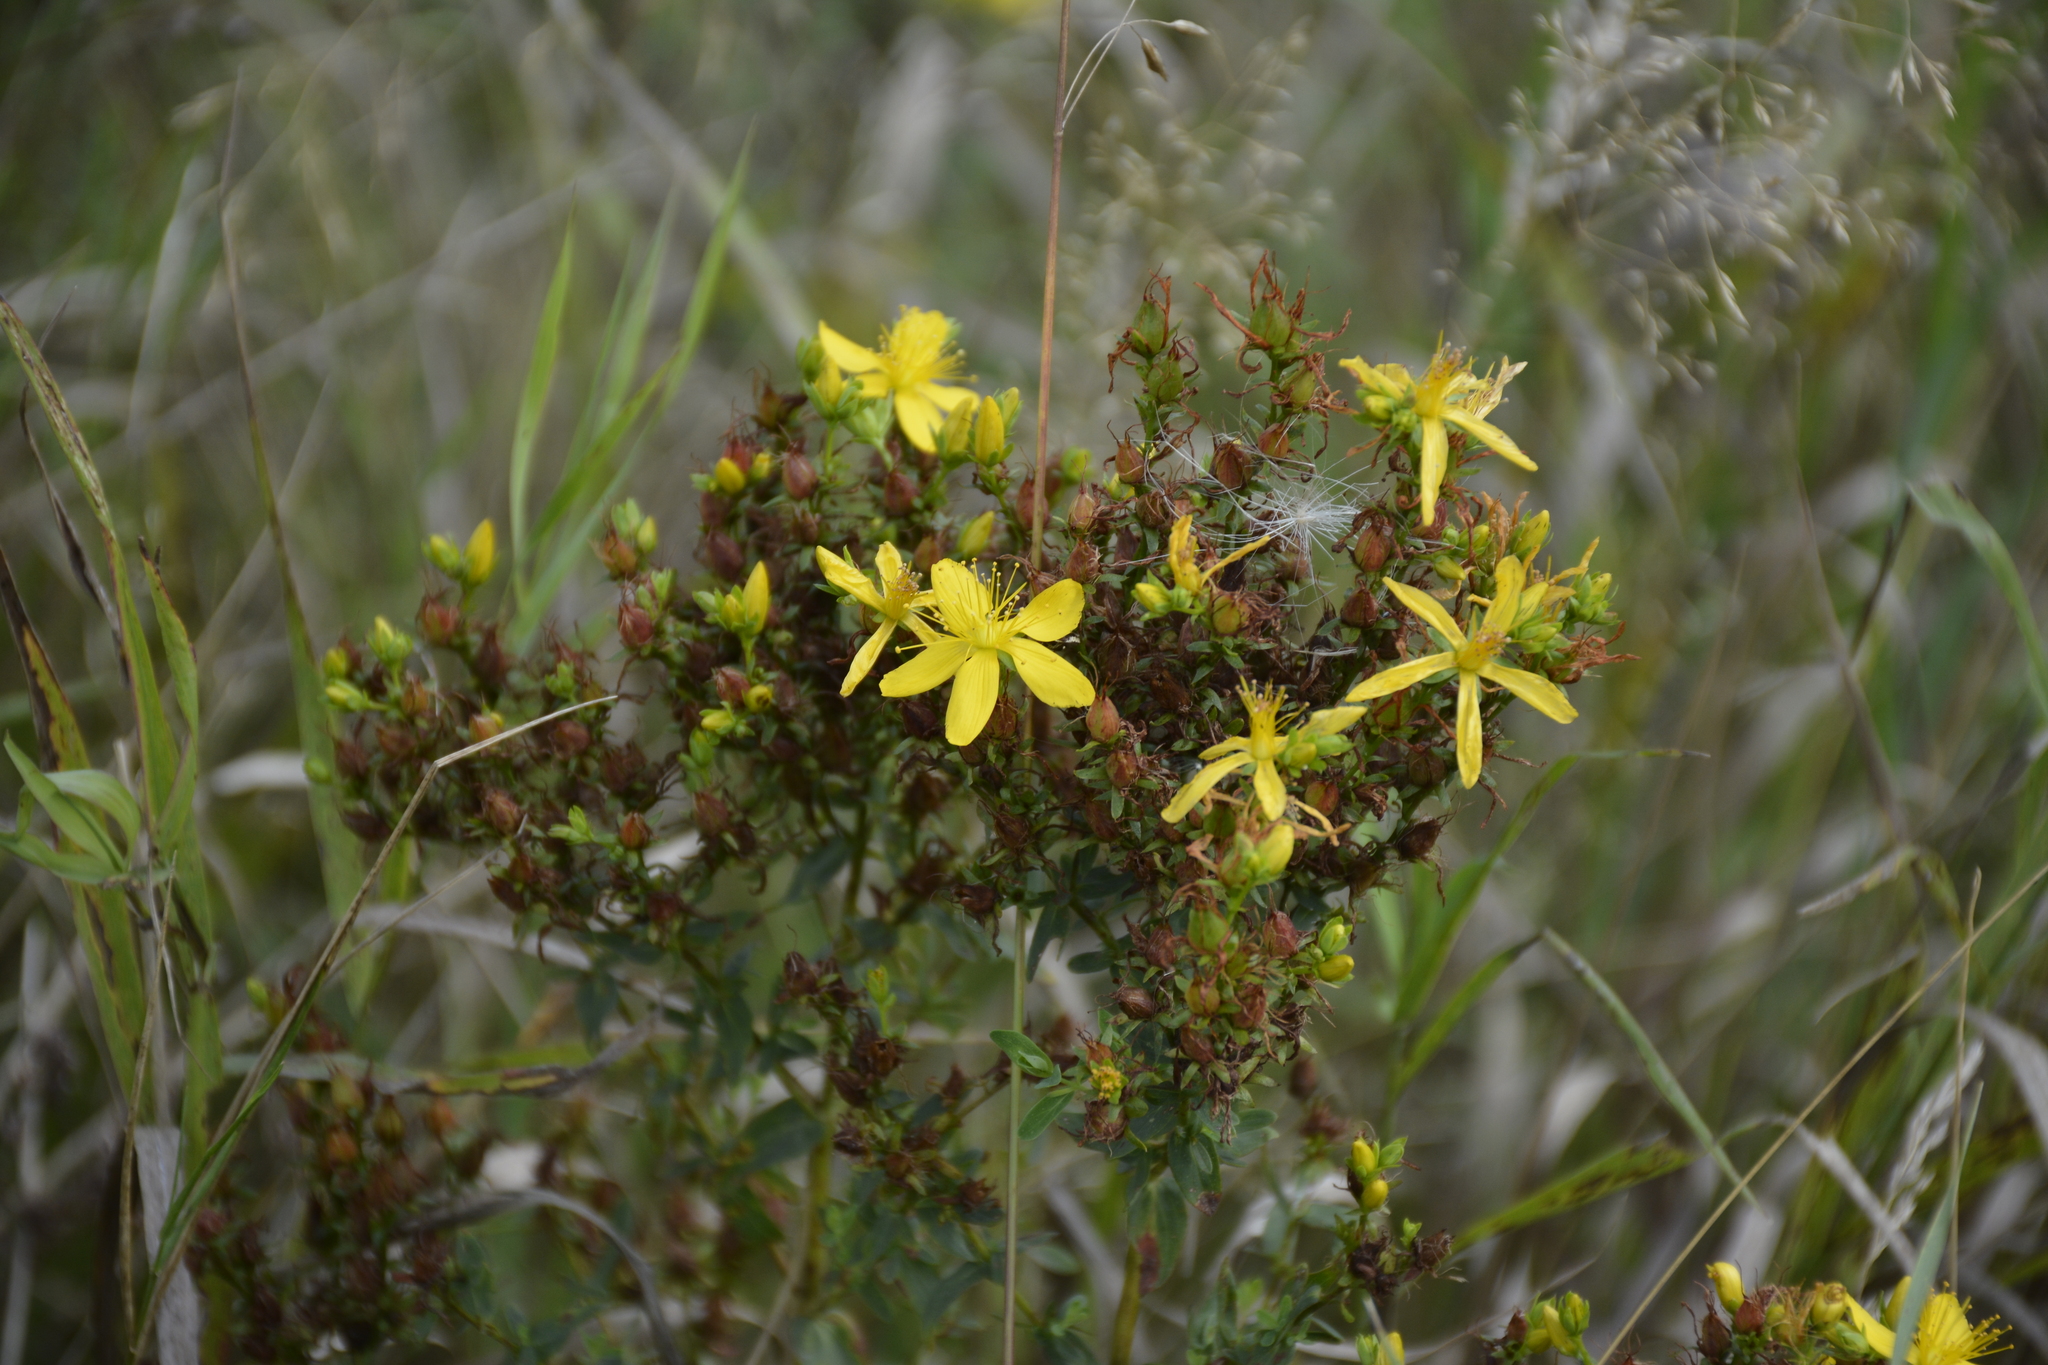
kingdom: Plantae
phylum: Tracheophyta
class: Magnoliopsida
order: Malpighiales
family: Hypericaceae
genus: Hypericum
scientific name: Hypericum perforatum
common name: Common st. johnswort
